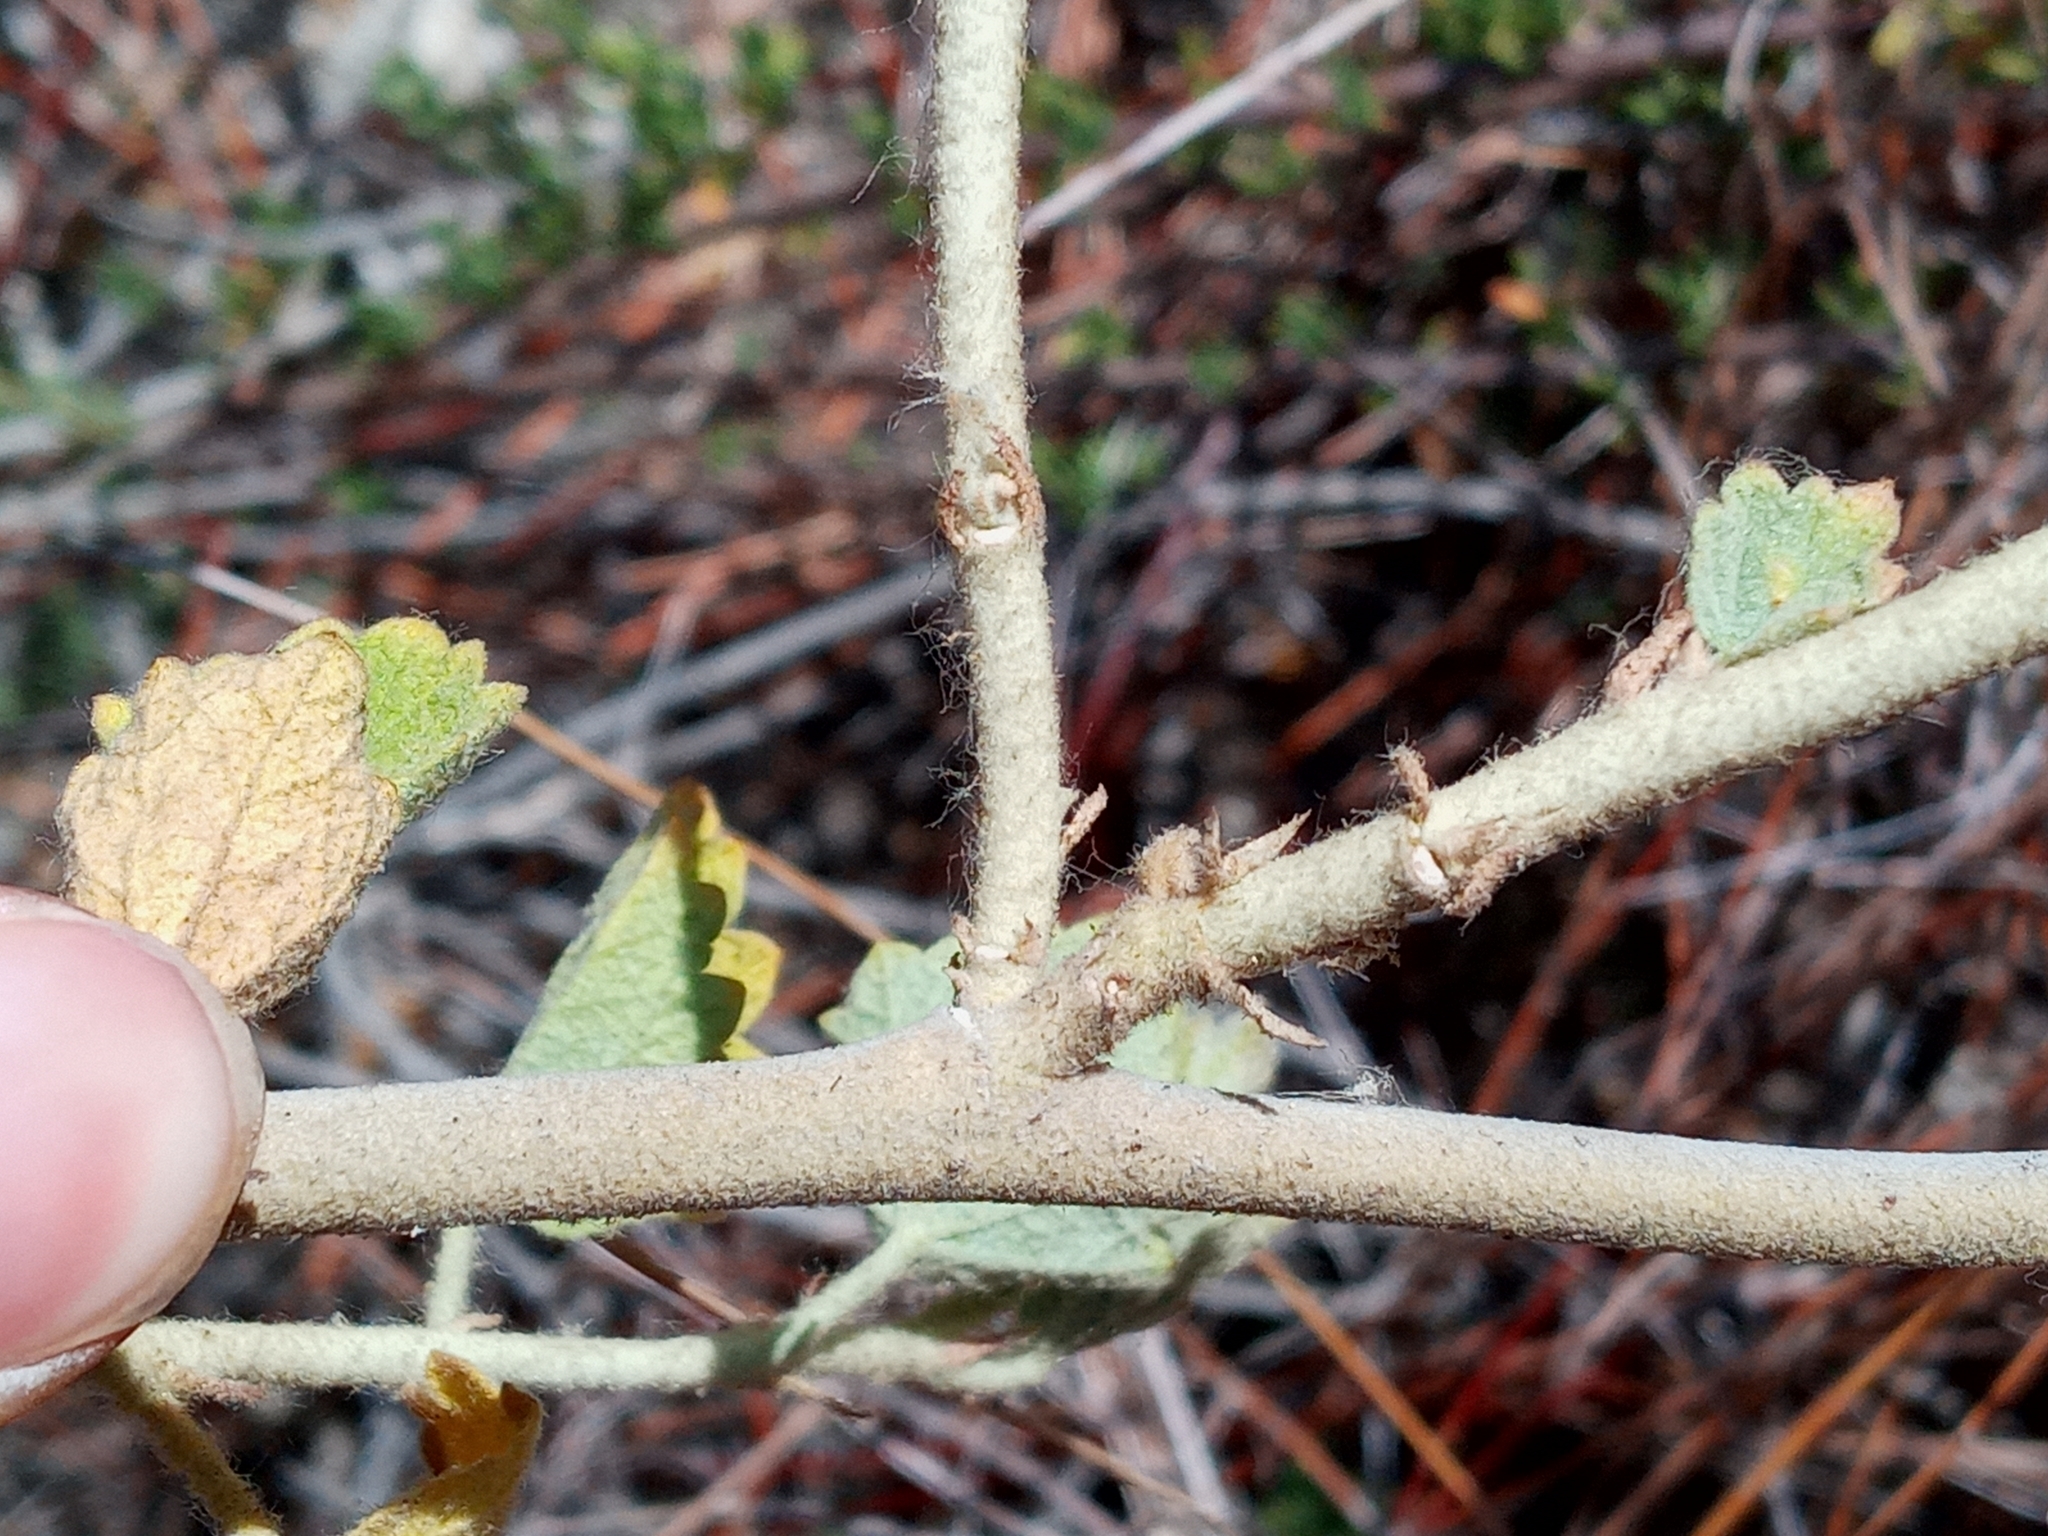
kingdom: Plantae
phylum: Tracheophyta
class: Magnoliopsida
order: Malvales
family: Malvaceae
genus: Malacothamnus
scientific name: Malacothamnus marrubioides
